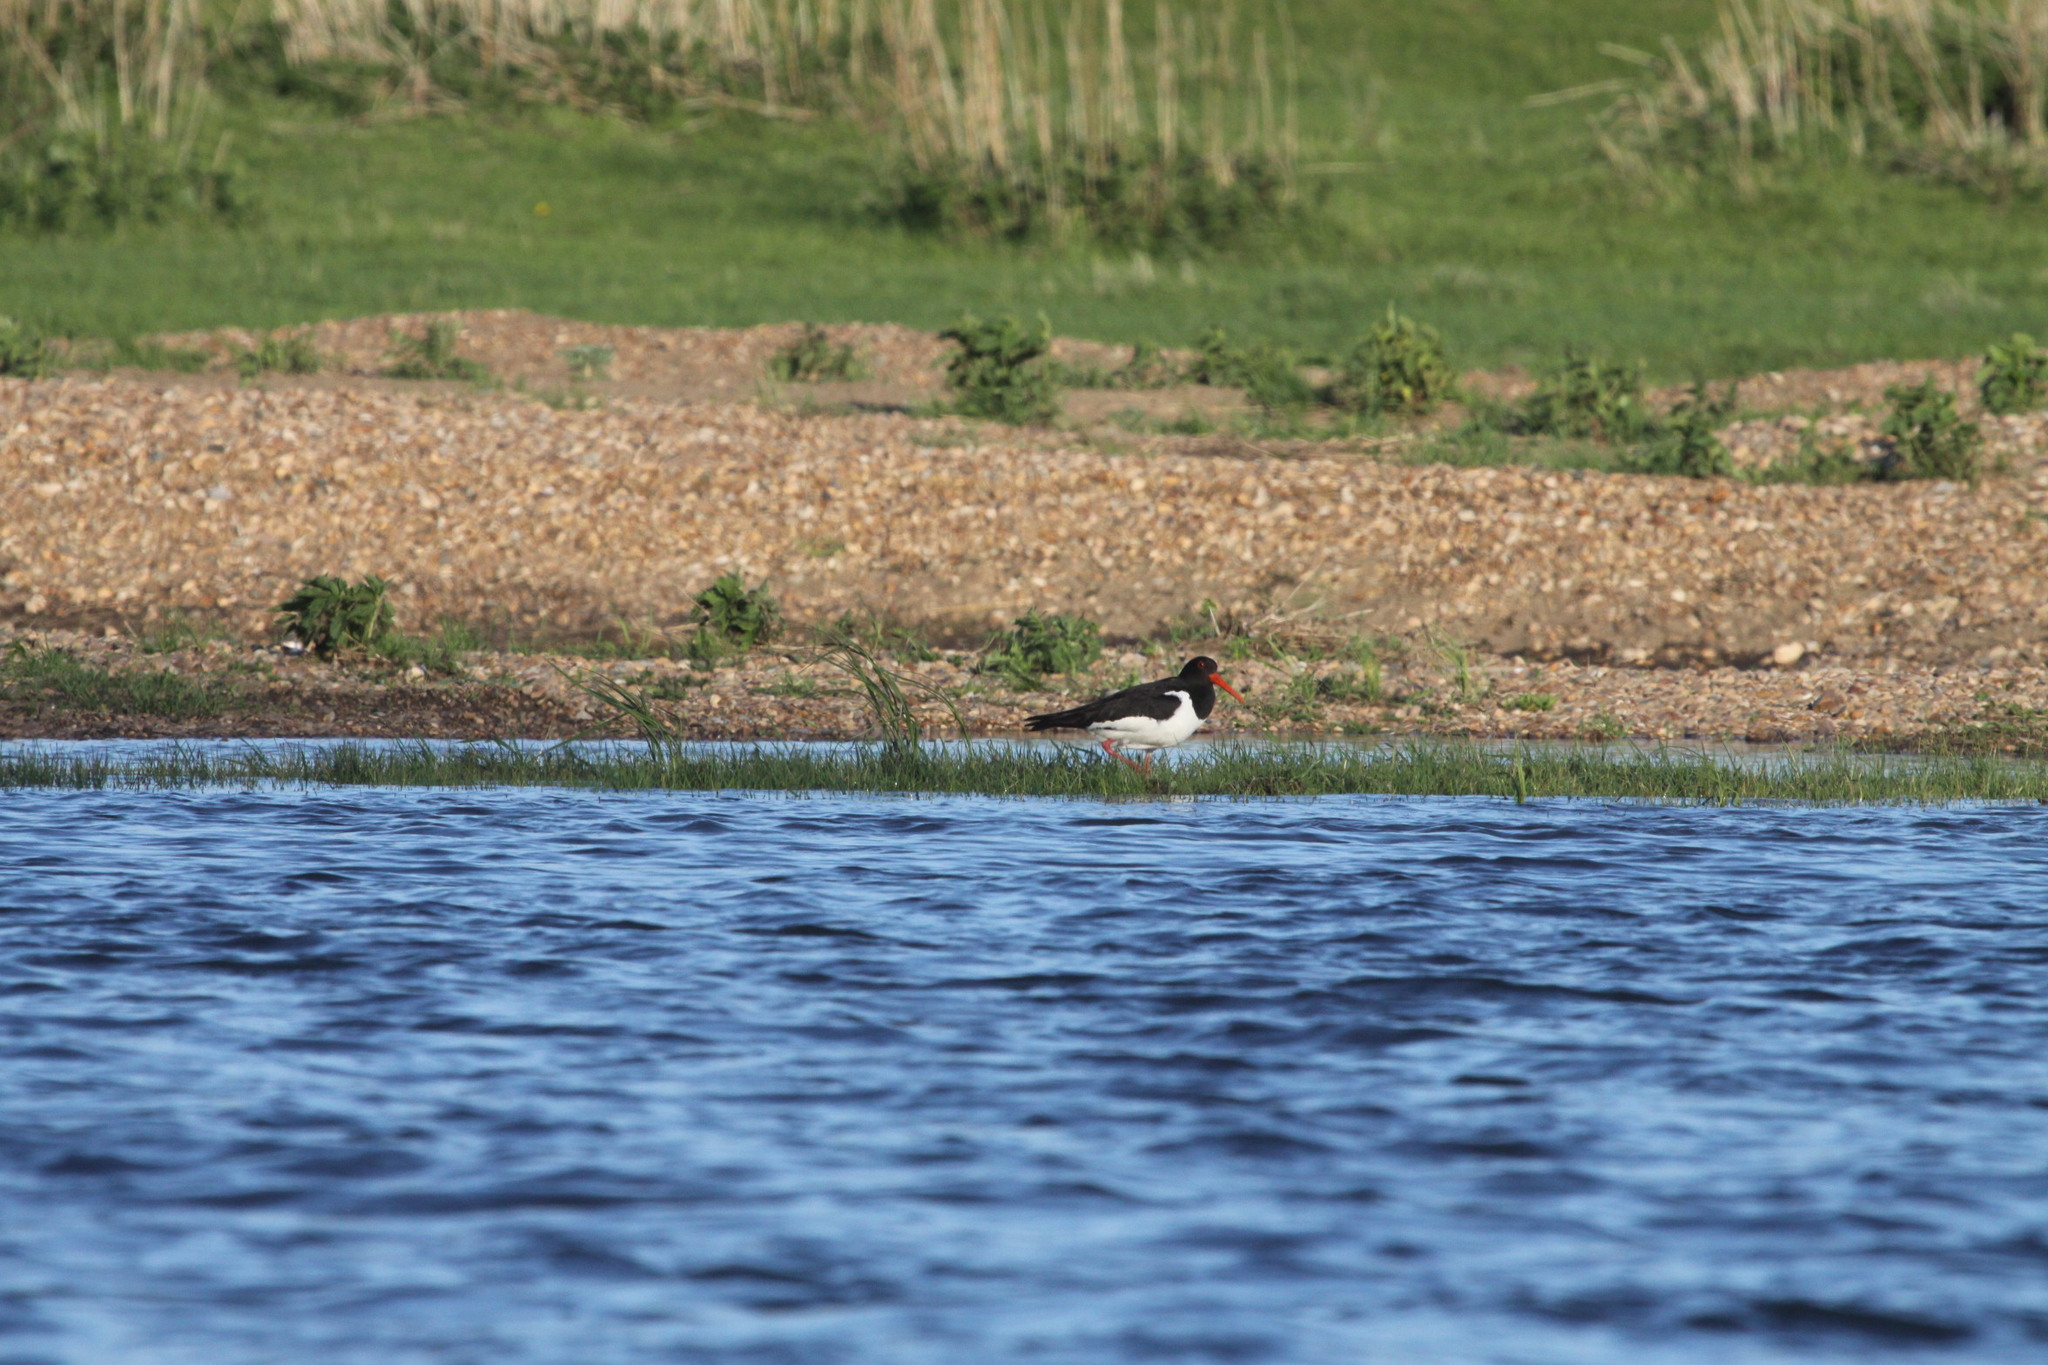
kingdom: Animalia
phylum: Chordata
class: Aves
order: Charadriiformes
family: Haematopodidae
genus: Haematopus
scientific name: Haematopus ostralegus
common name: Eurasian oystercatcher
